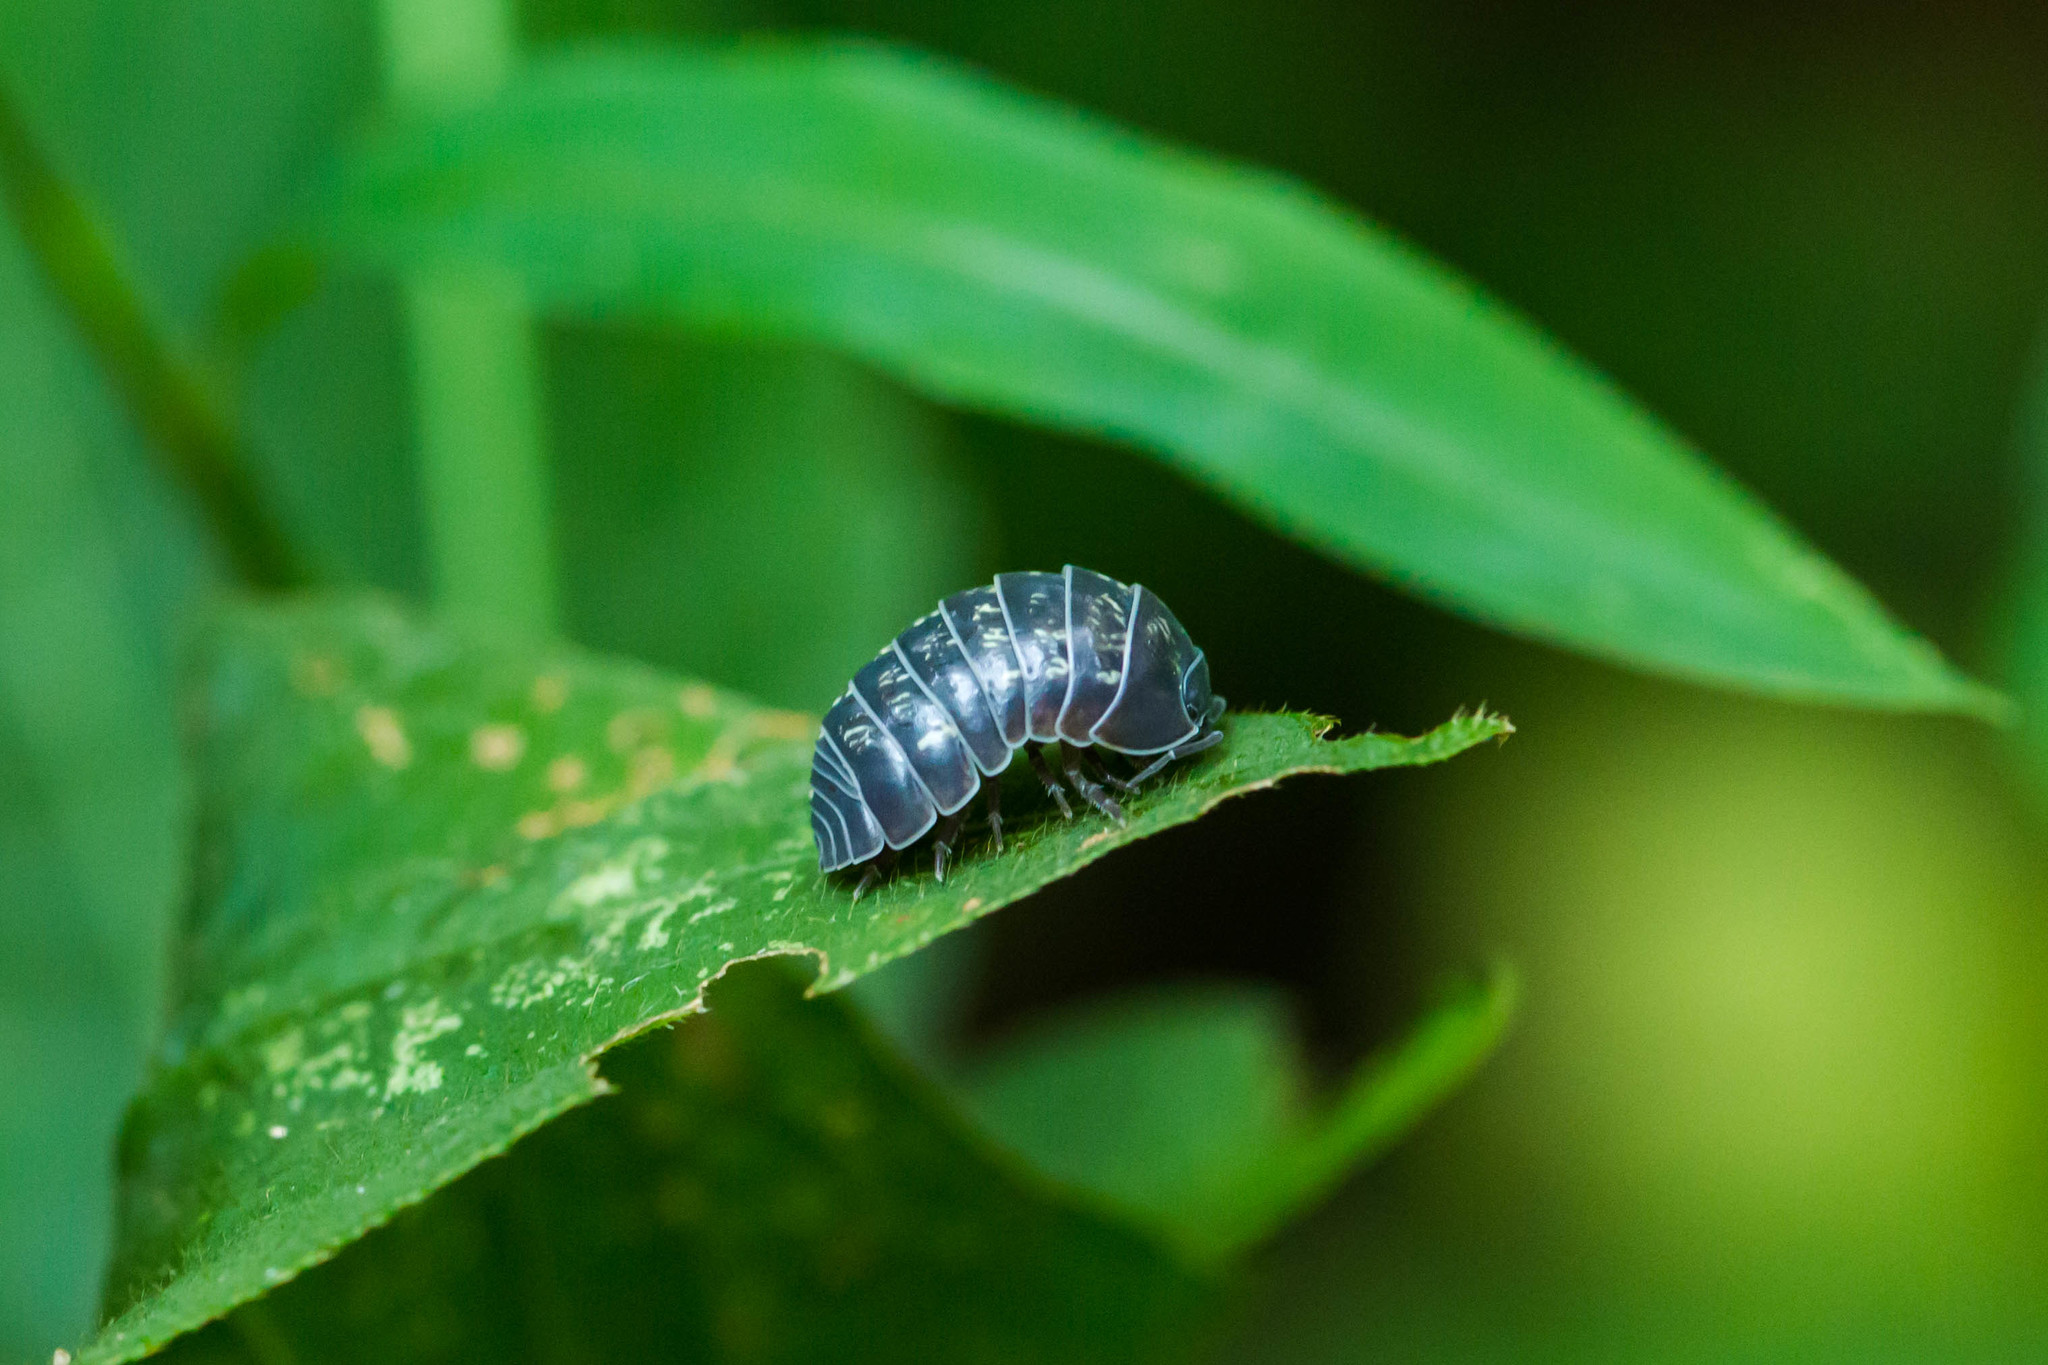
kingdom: Animalia
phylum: Arthropoda
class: Malacostraca
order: Isopoda
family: Armadillidiidae
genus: Armadillidium
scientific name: Armadillidium vulgare
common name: Common pill woodlouse
